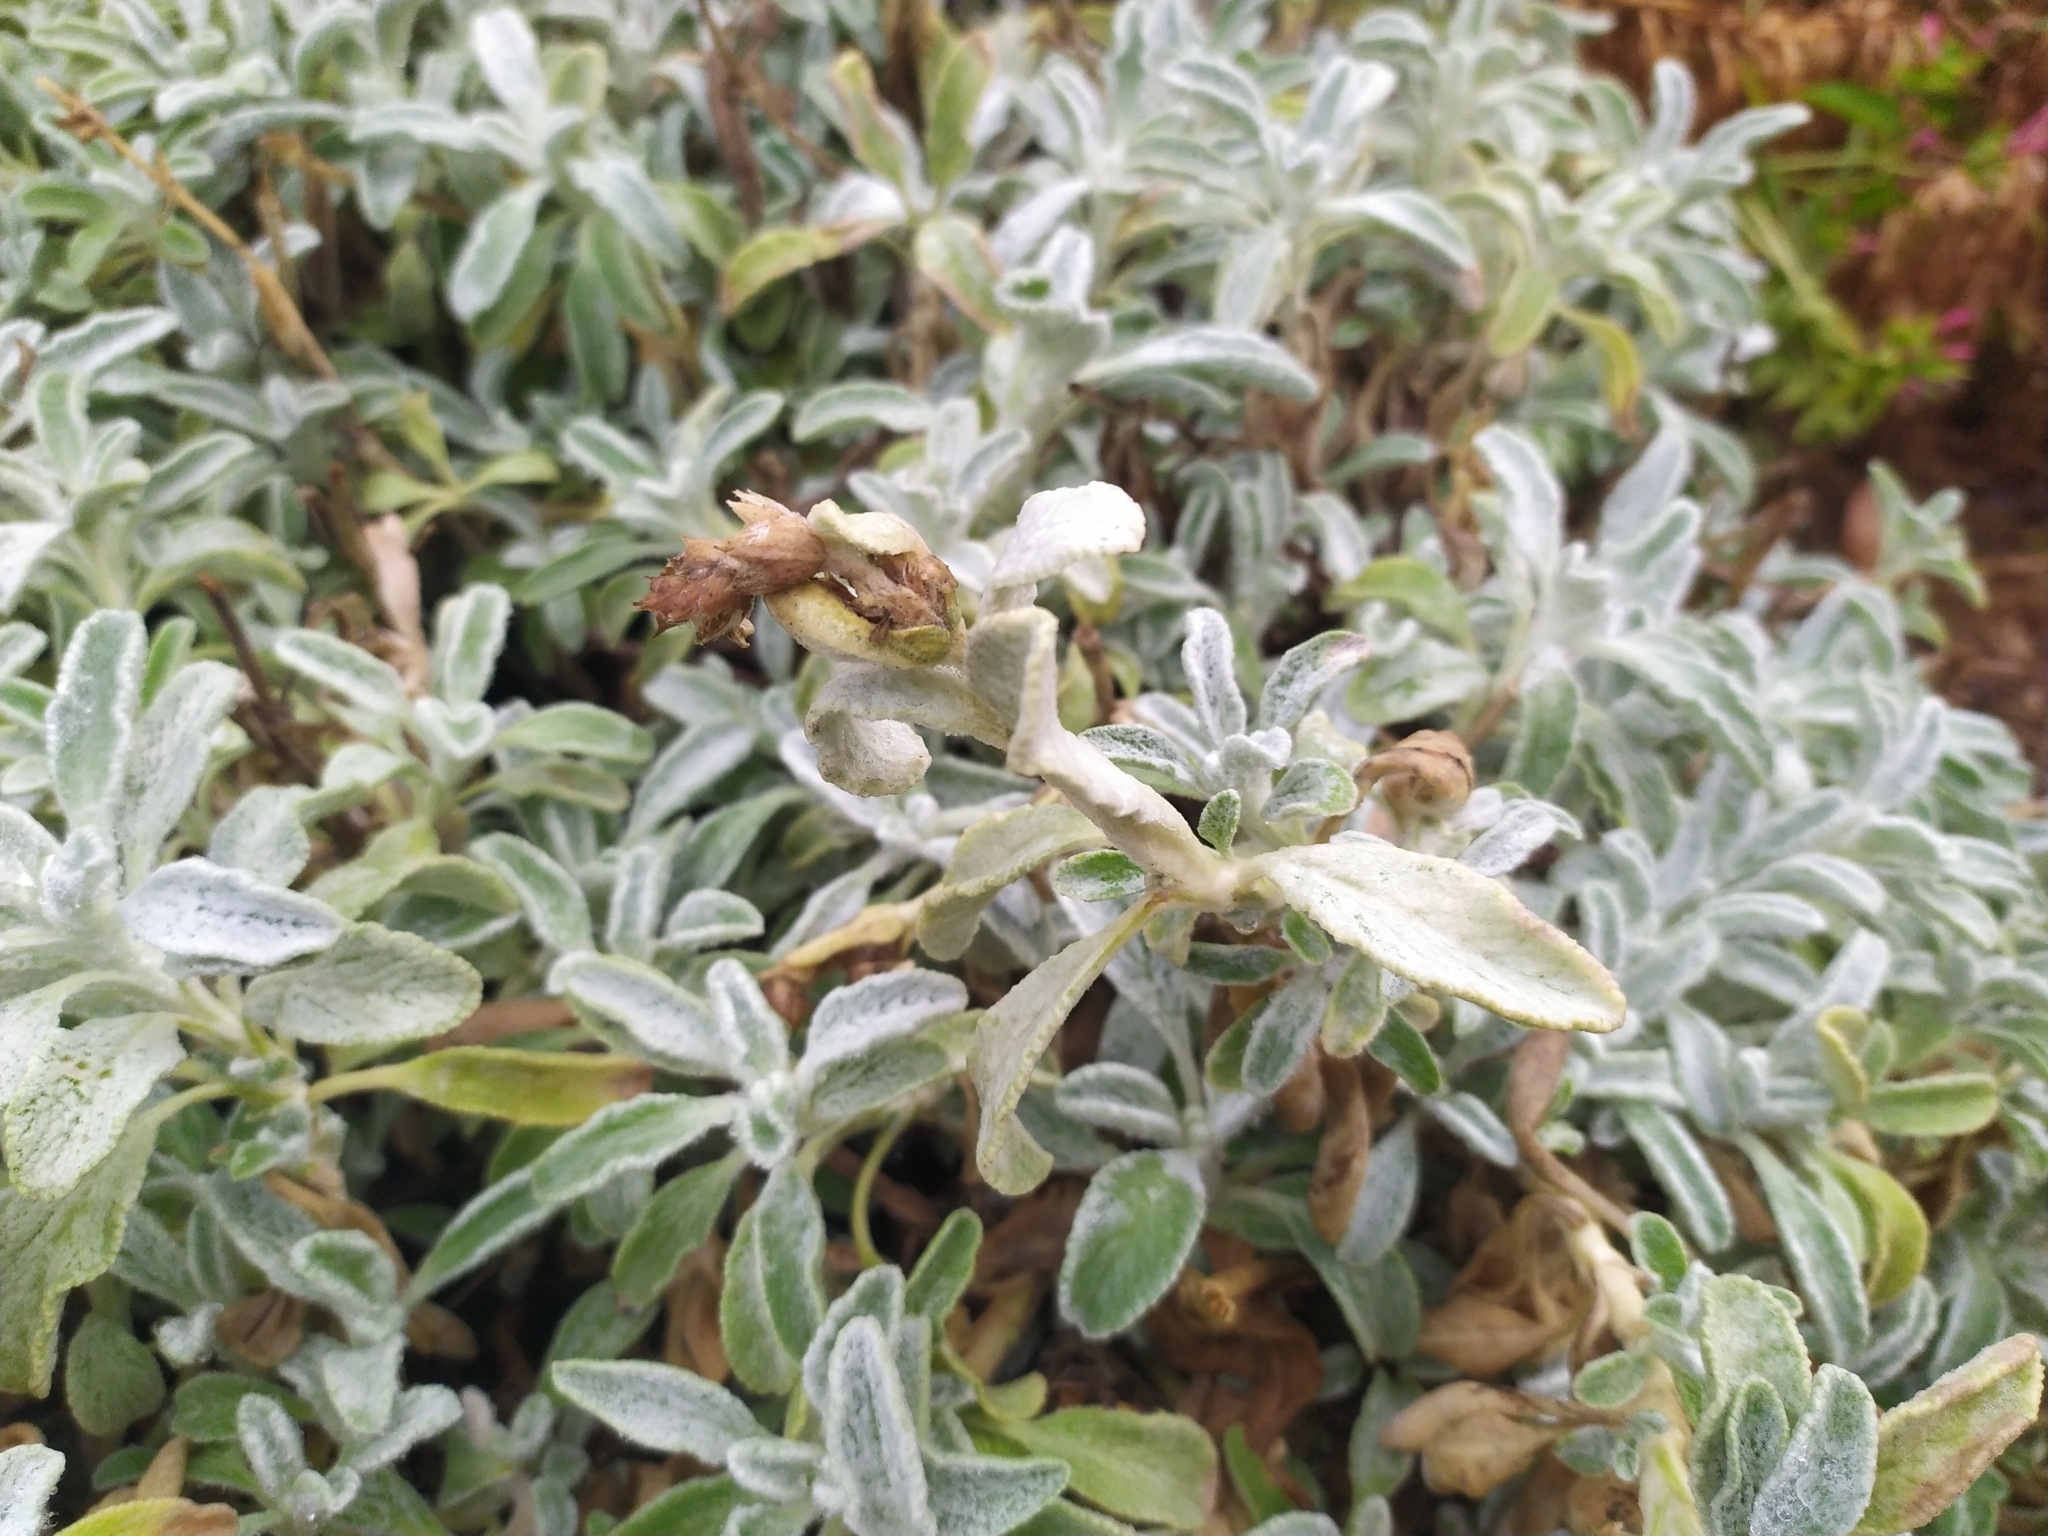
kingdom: Plantae
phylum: Tracheophyta
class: Magnoliopsida
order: Lamiales
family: Lamiaceae
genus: Sideritis
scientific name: Sideritis raeseri
